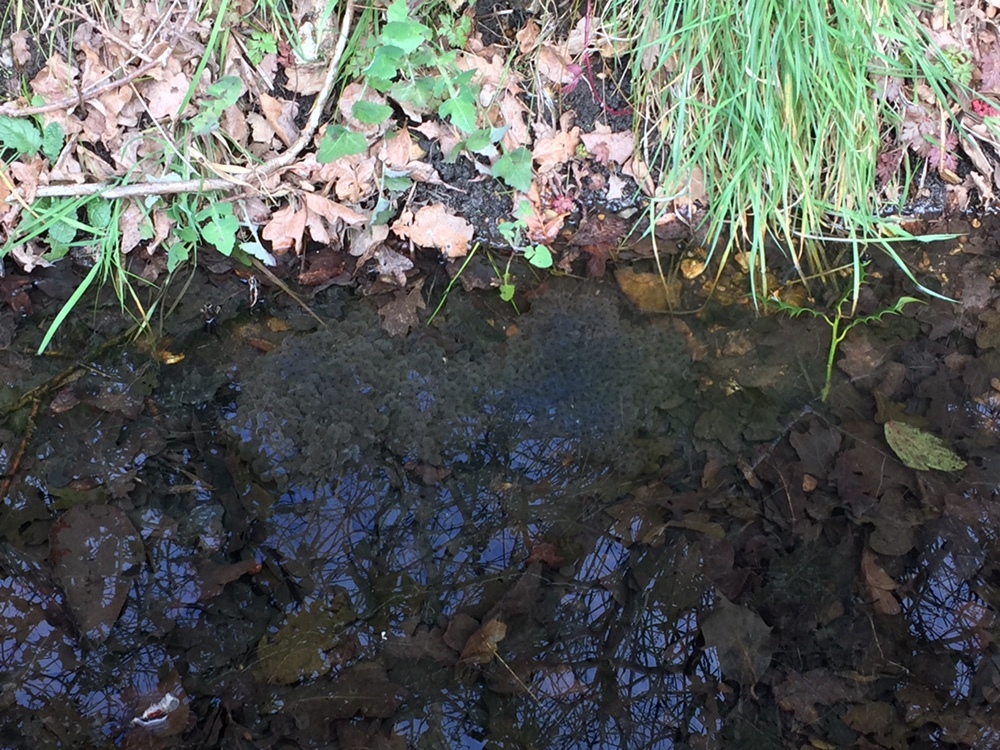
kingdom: Animalia
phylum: Chordata
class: Amphibia
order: Anura
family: Ranidae
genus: Rana
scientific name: Rana temporaria
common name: Common frog
